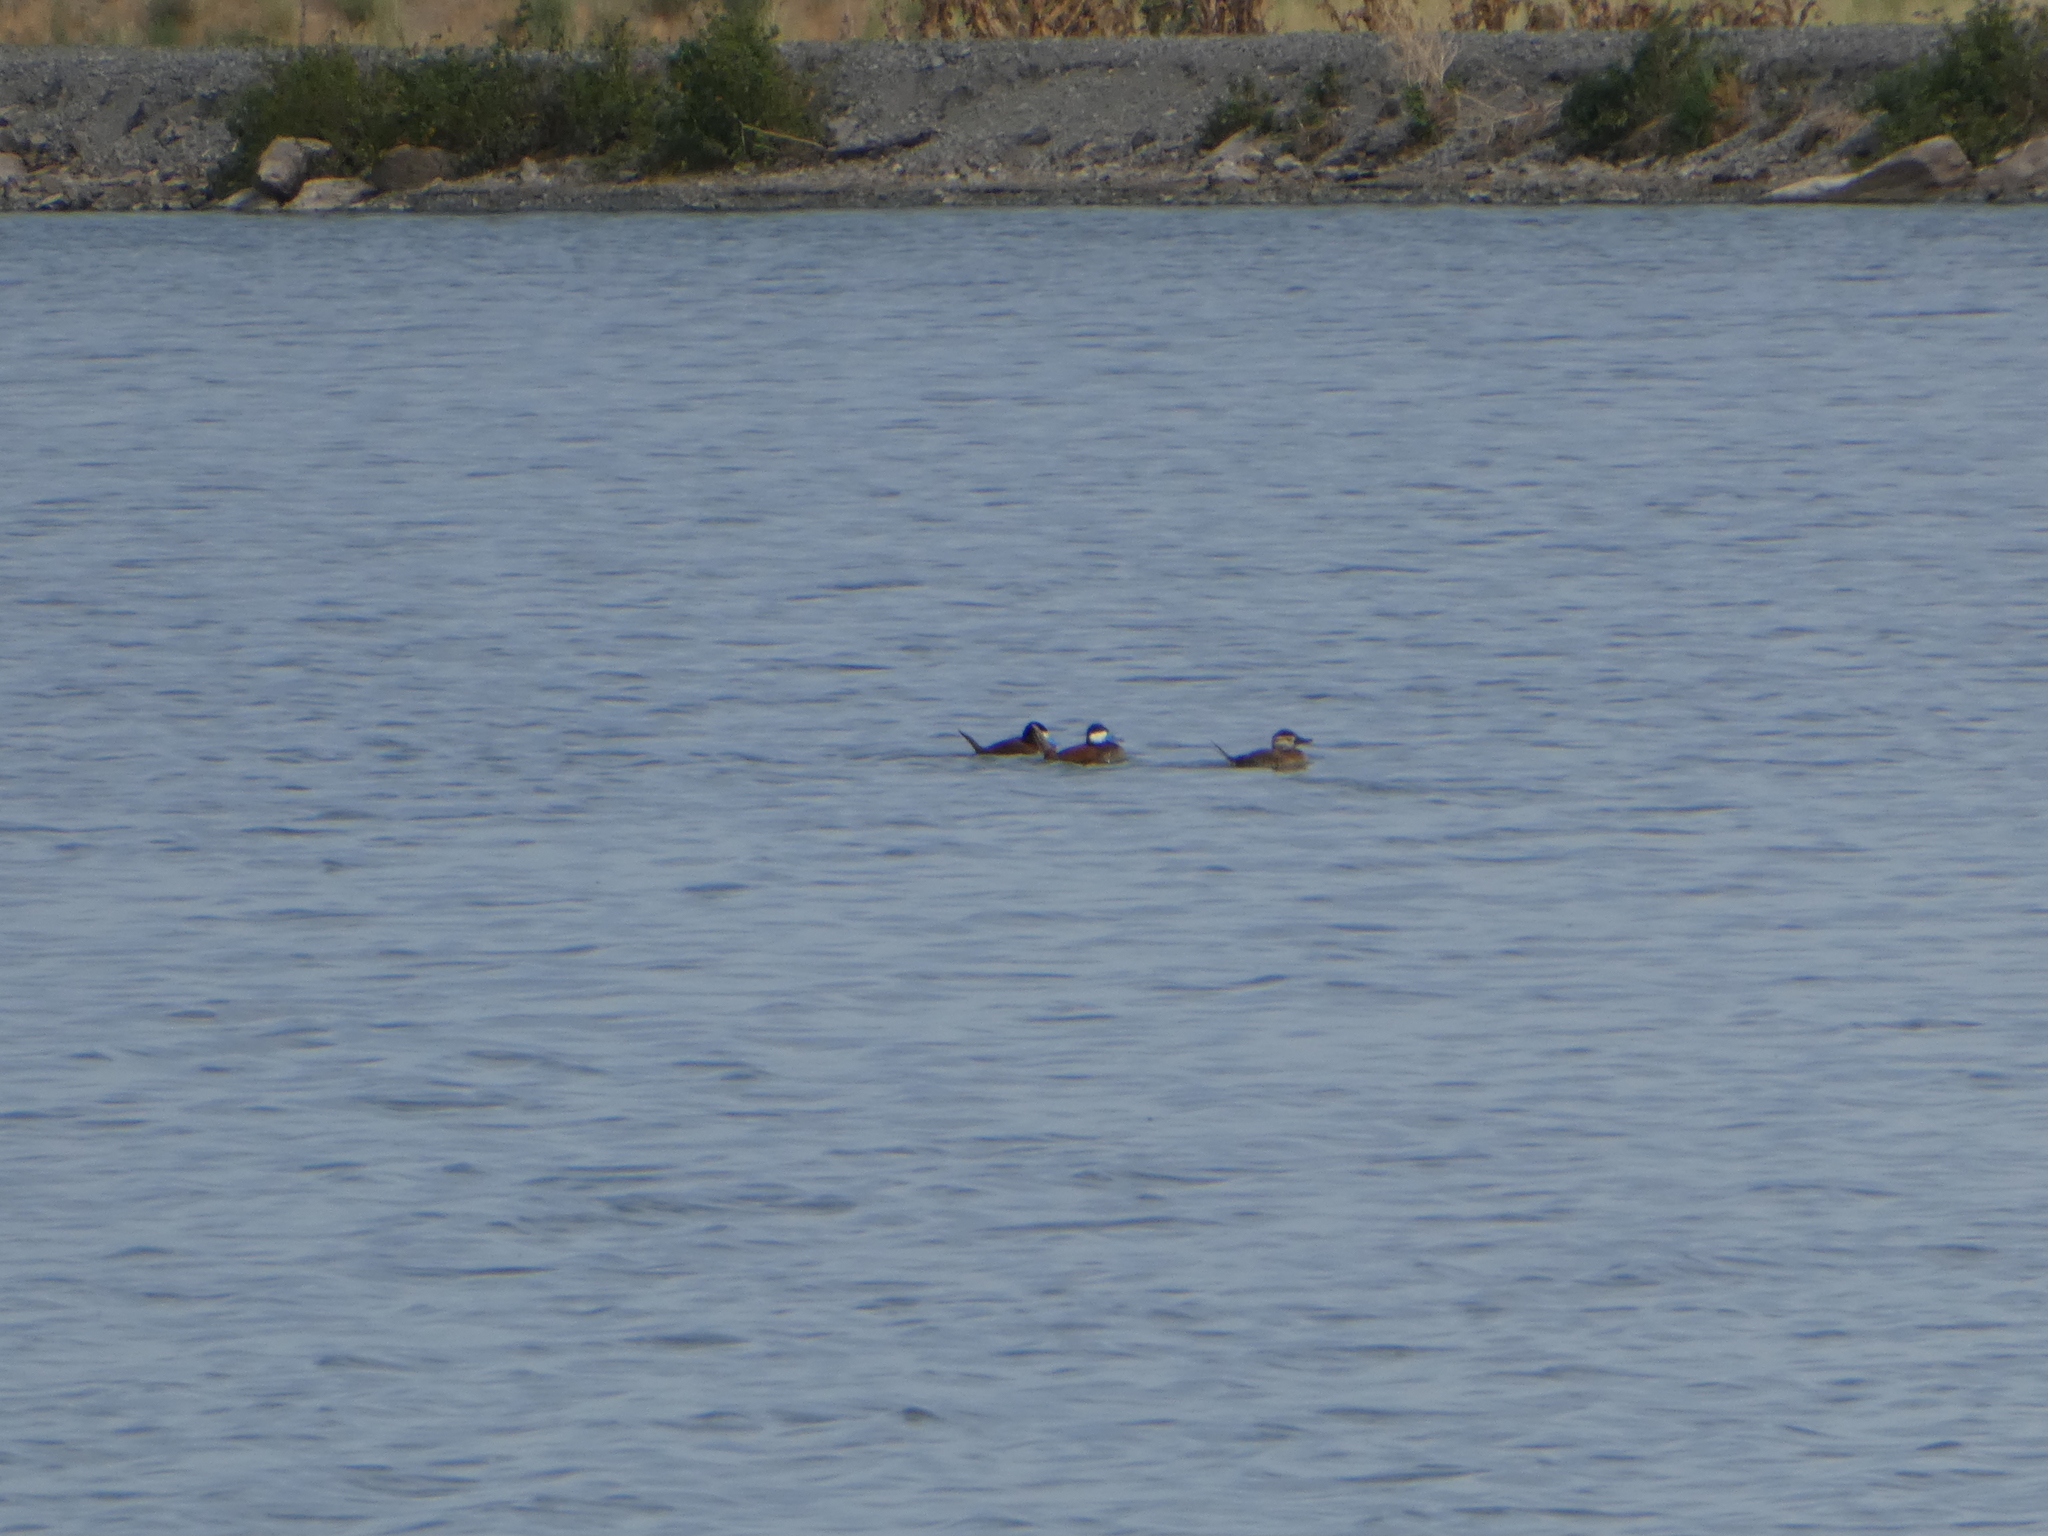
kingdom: Animalia
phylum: Chordata
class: Aves
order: Anseriformes
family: Anatidae
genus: Oxyura
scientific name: Oxyura jamaicensis
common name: Ruddy duck
